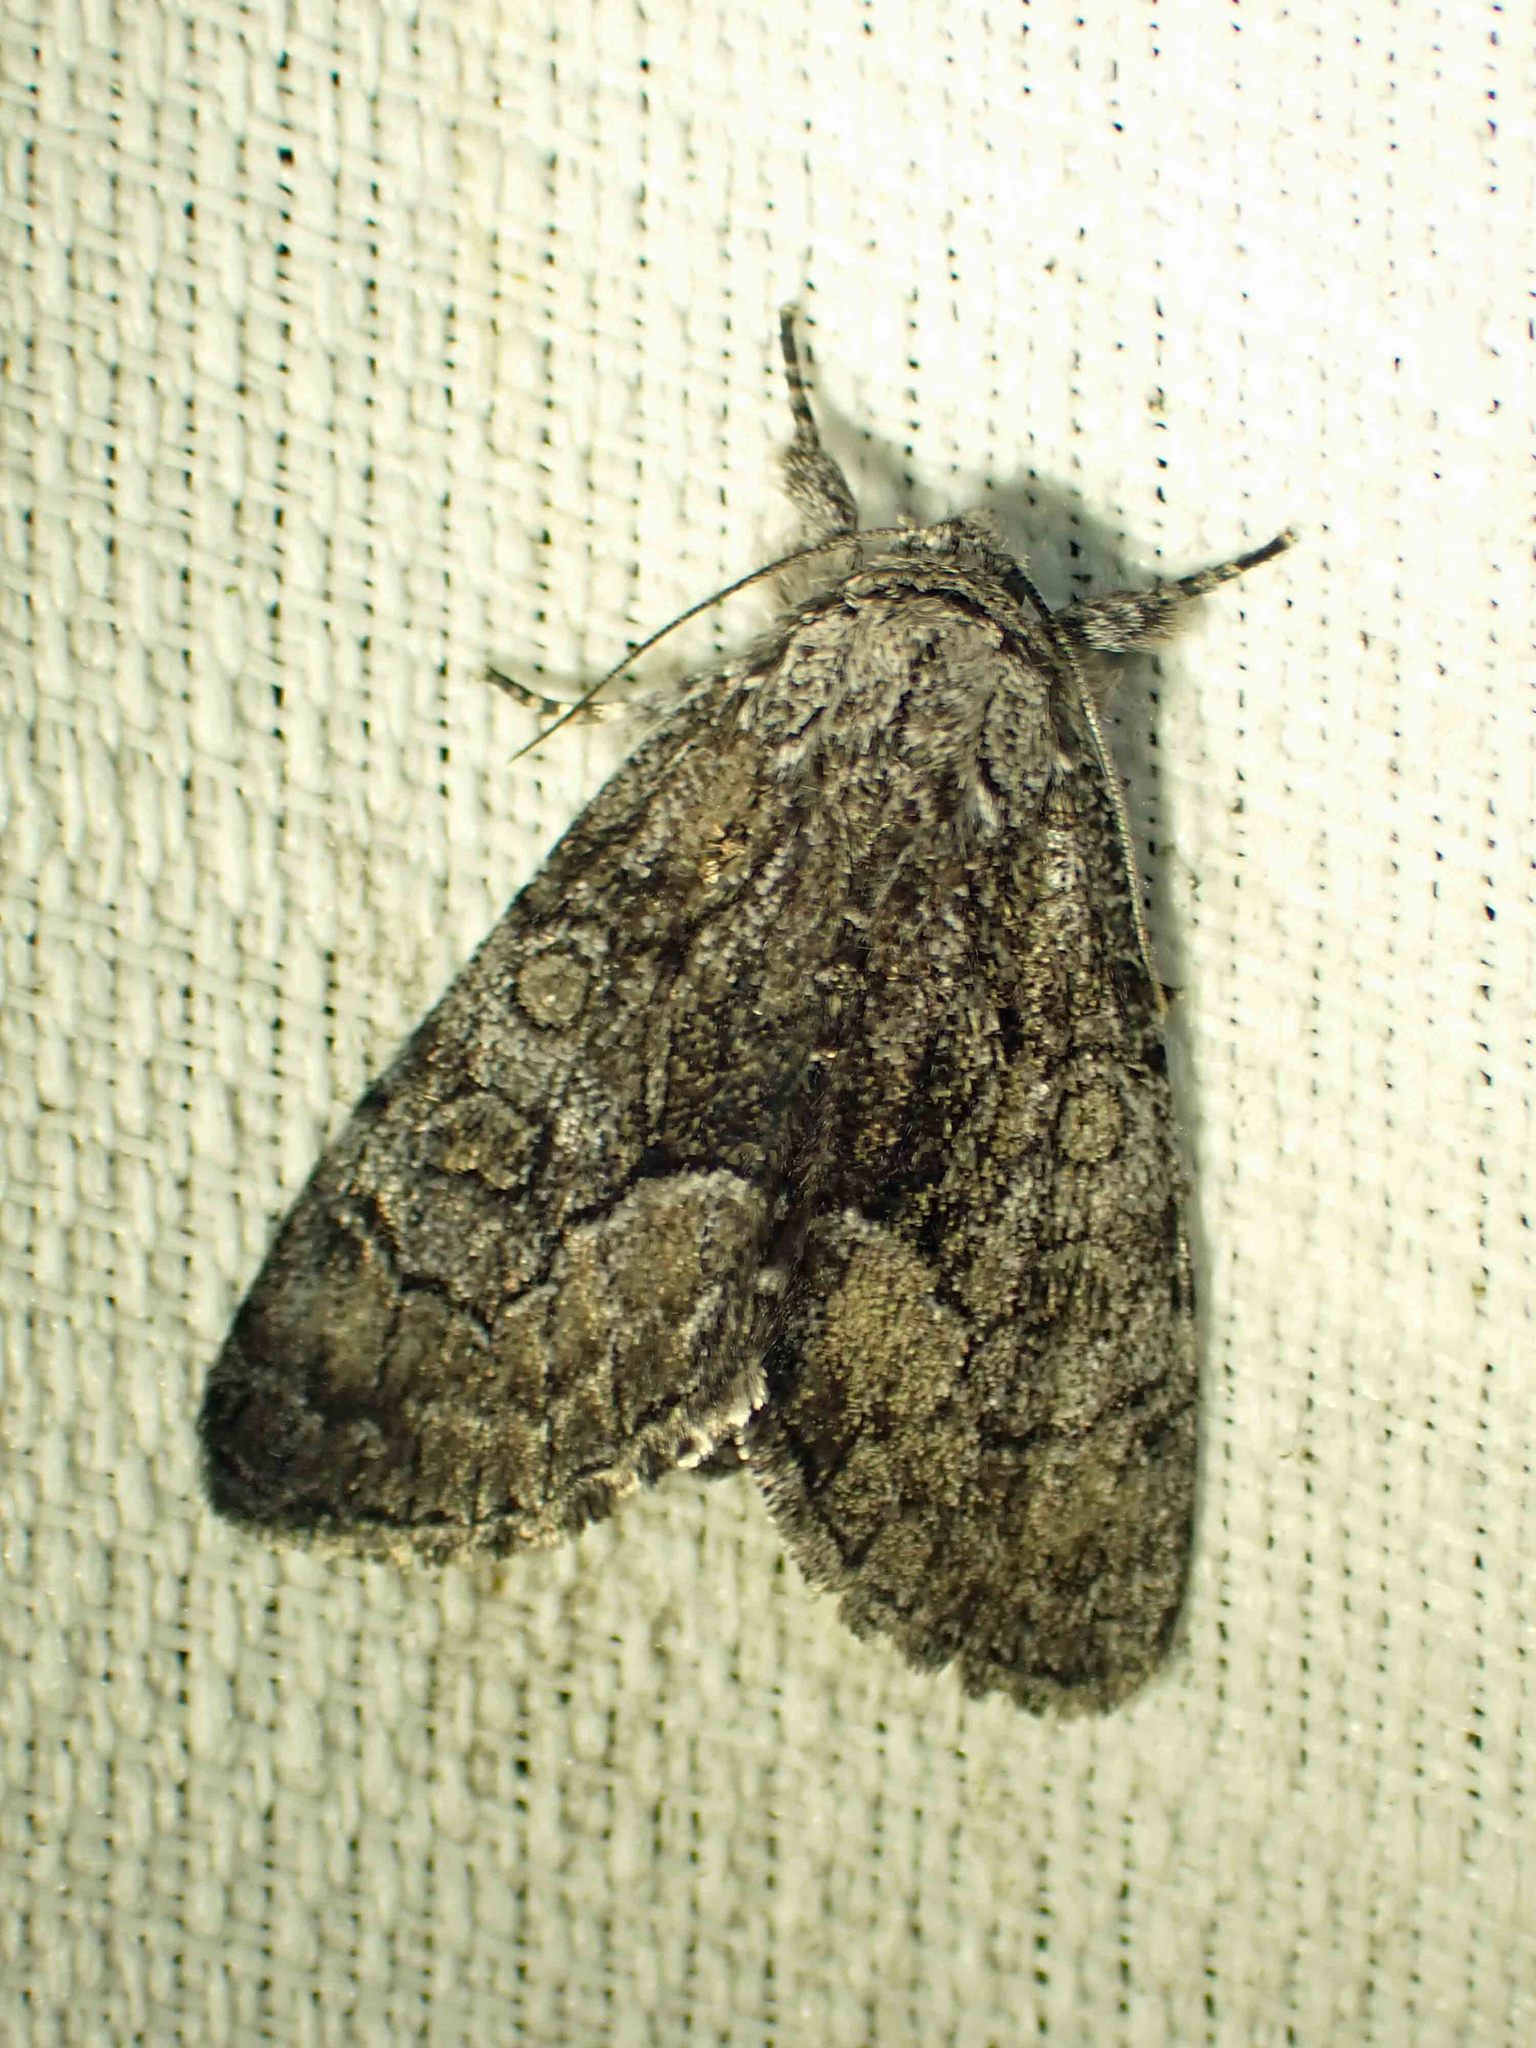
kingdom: Animalia
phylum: Arthropoda
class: Insecta
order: Lepidoptera
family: Noctuidae
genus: Raphia
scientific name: Raphia frater
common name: Brother
